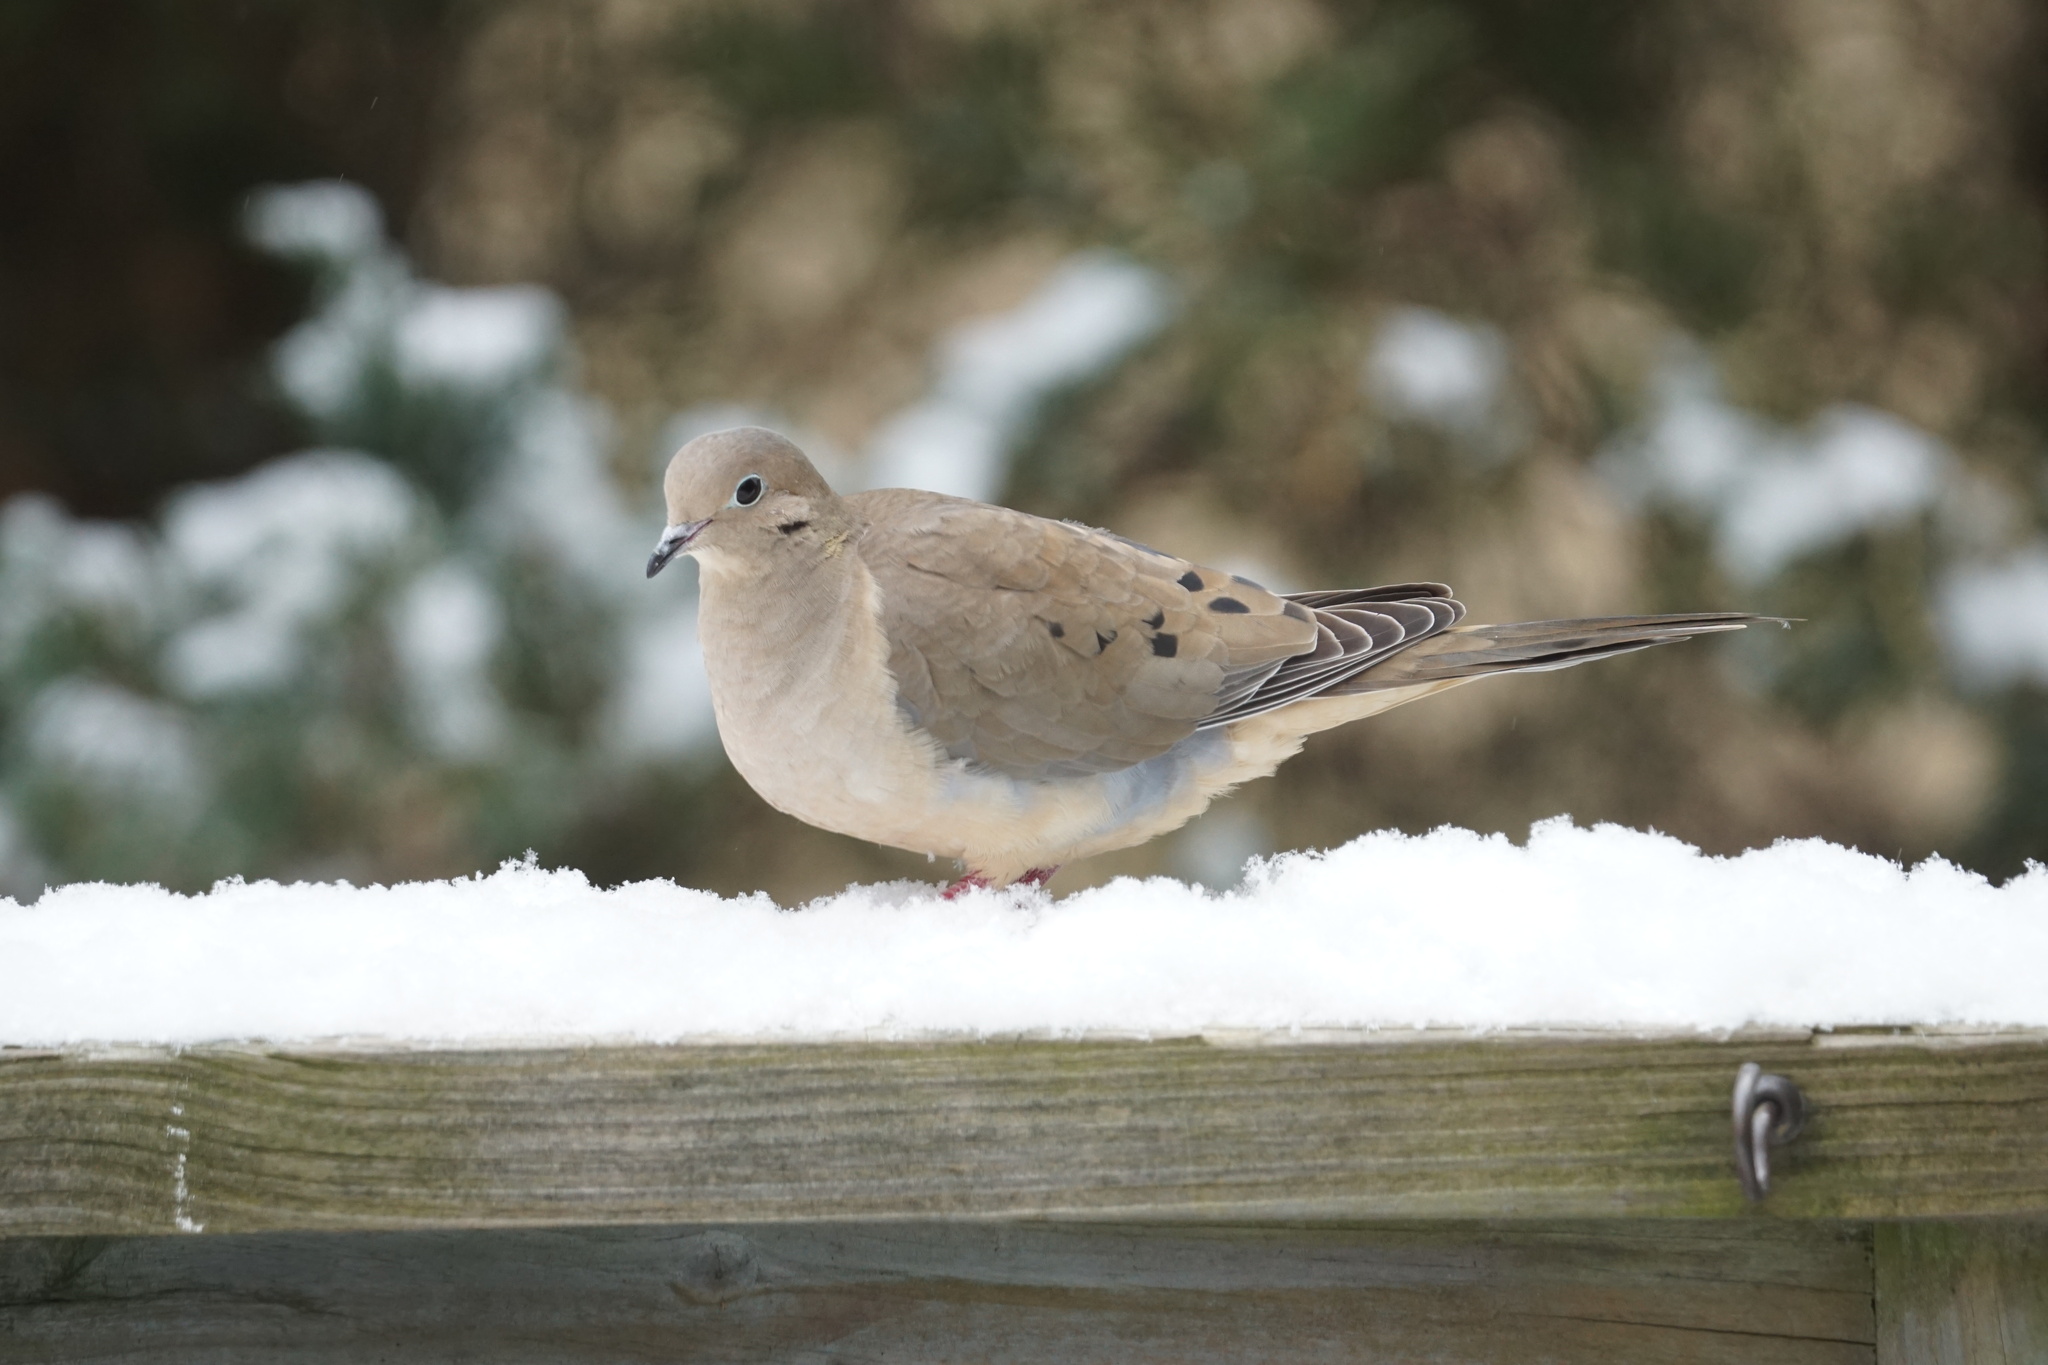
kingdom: Animalia
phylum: Chordata
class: Aves
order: Columbiformes
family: Columbidae
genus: Zenaida
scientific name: Zenaida macroura
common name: Mourning dove
